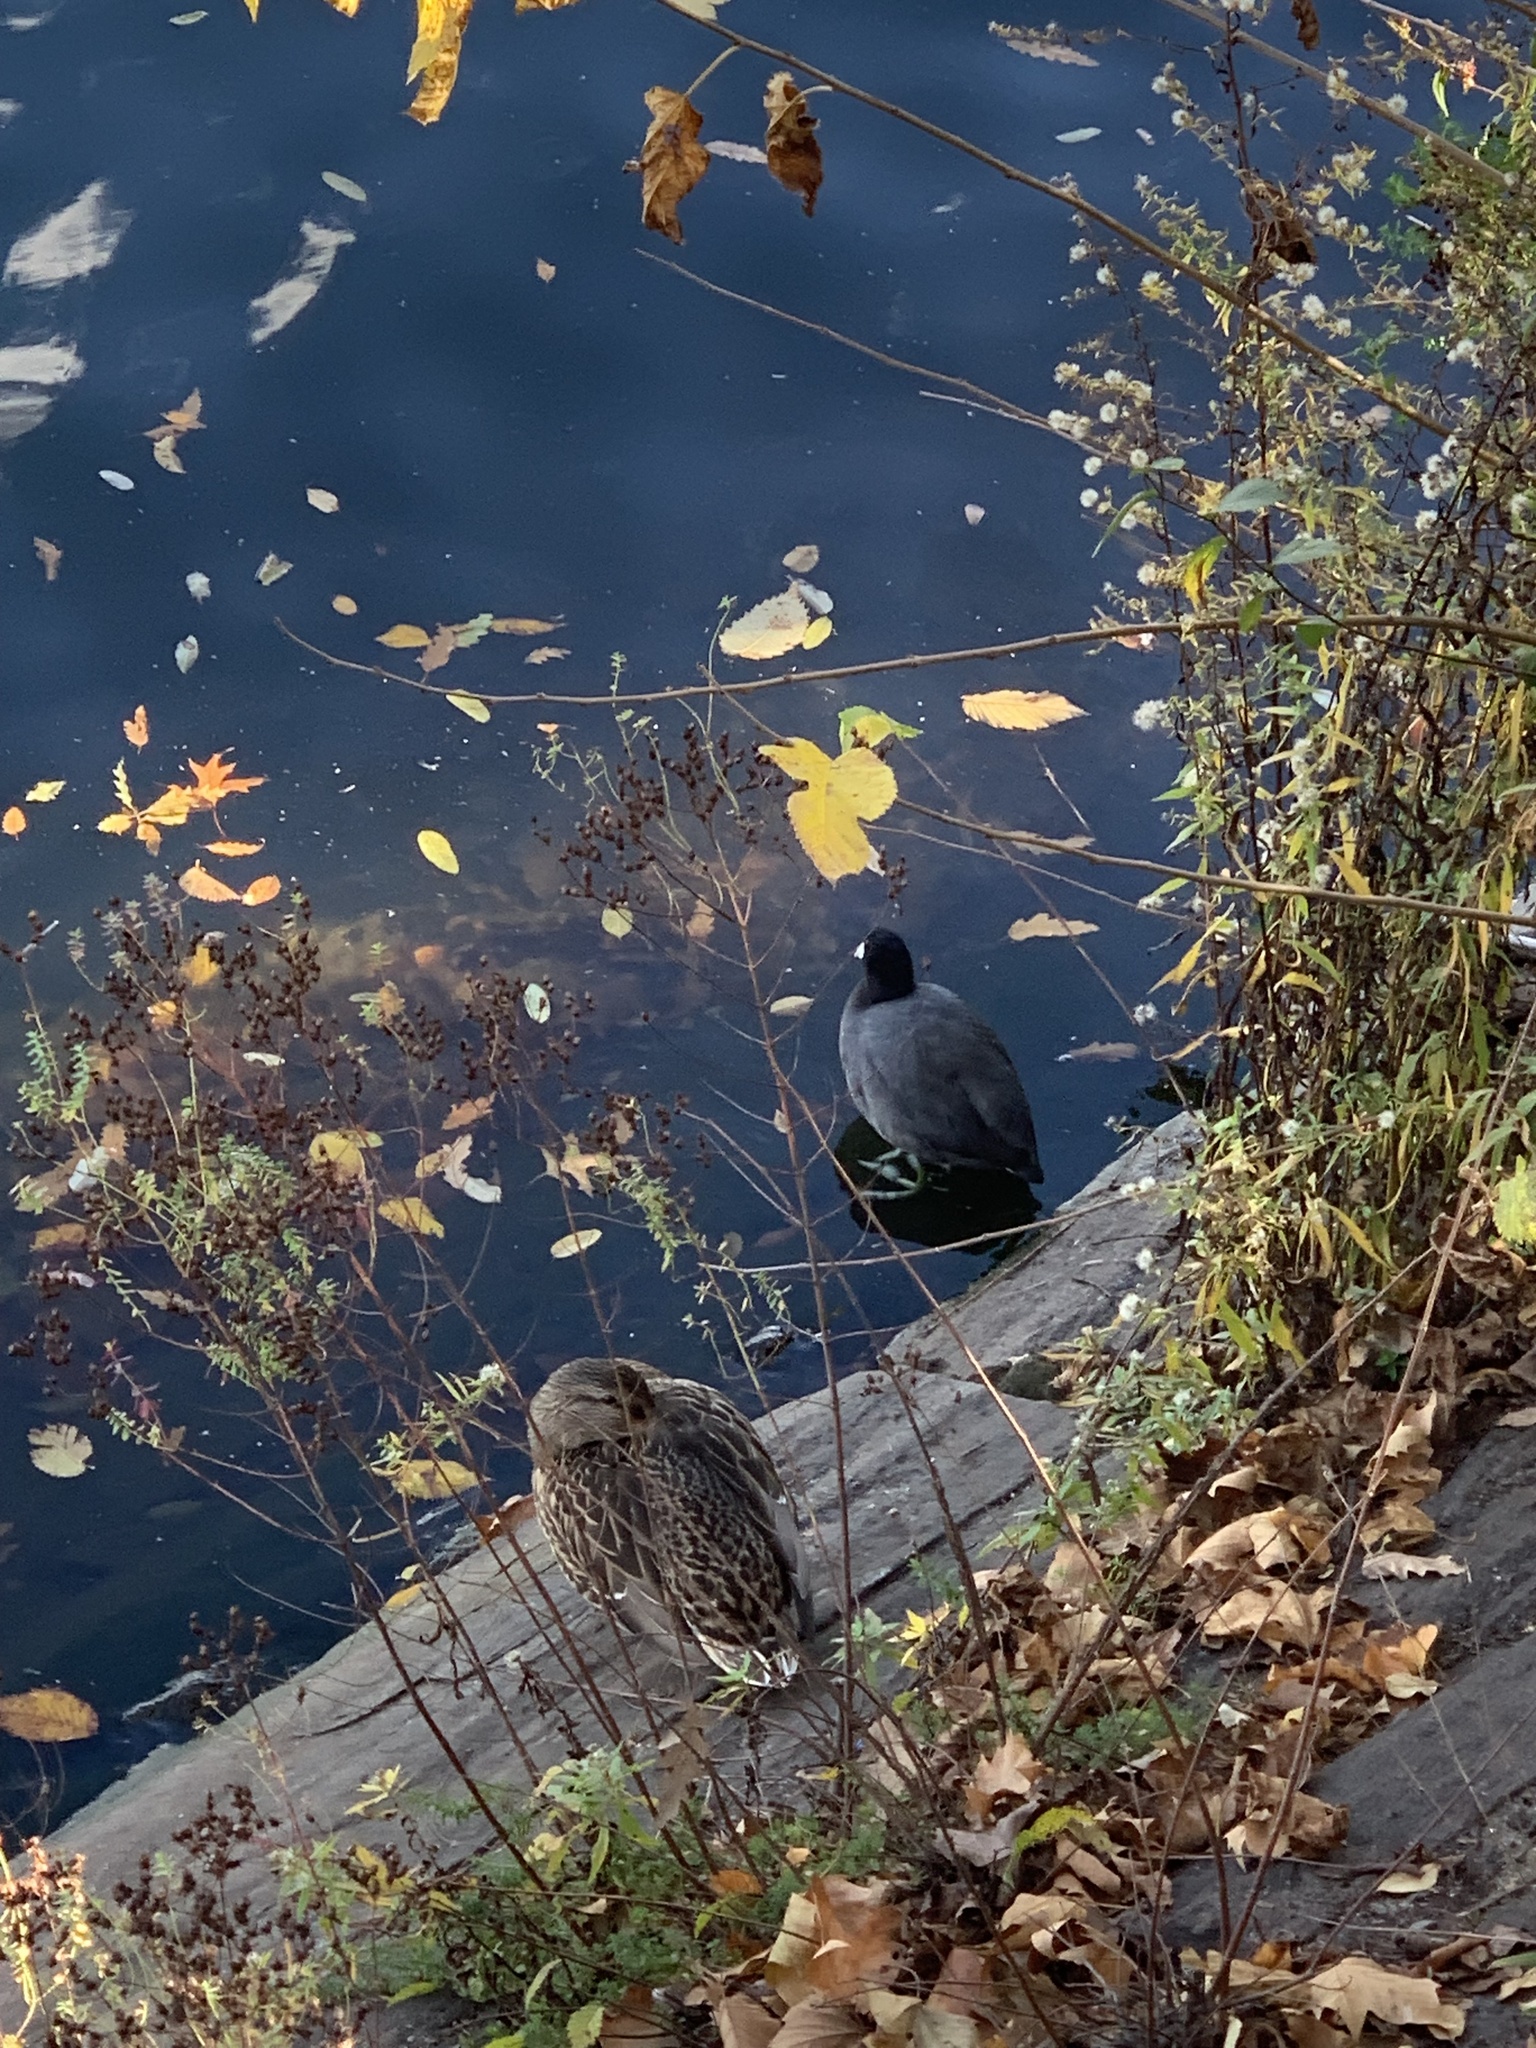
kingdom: Animalia
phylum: Chordata
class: Aves
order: Gruiformes
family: Rallidae
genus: Fulica
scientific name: Fulica americana
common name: American coot
